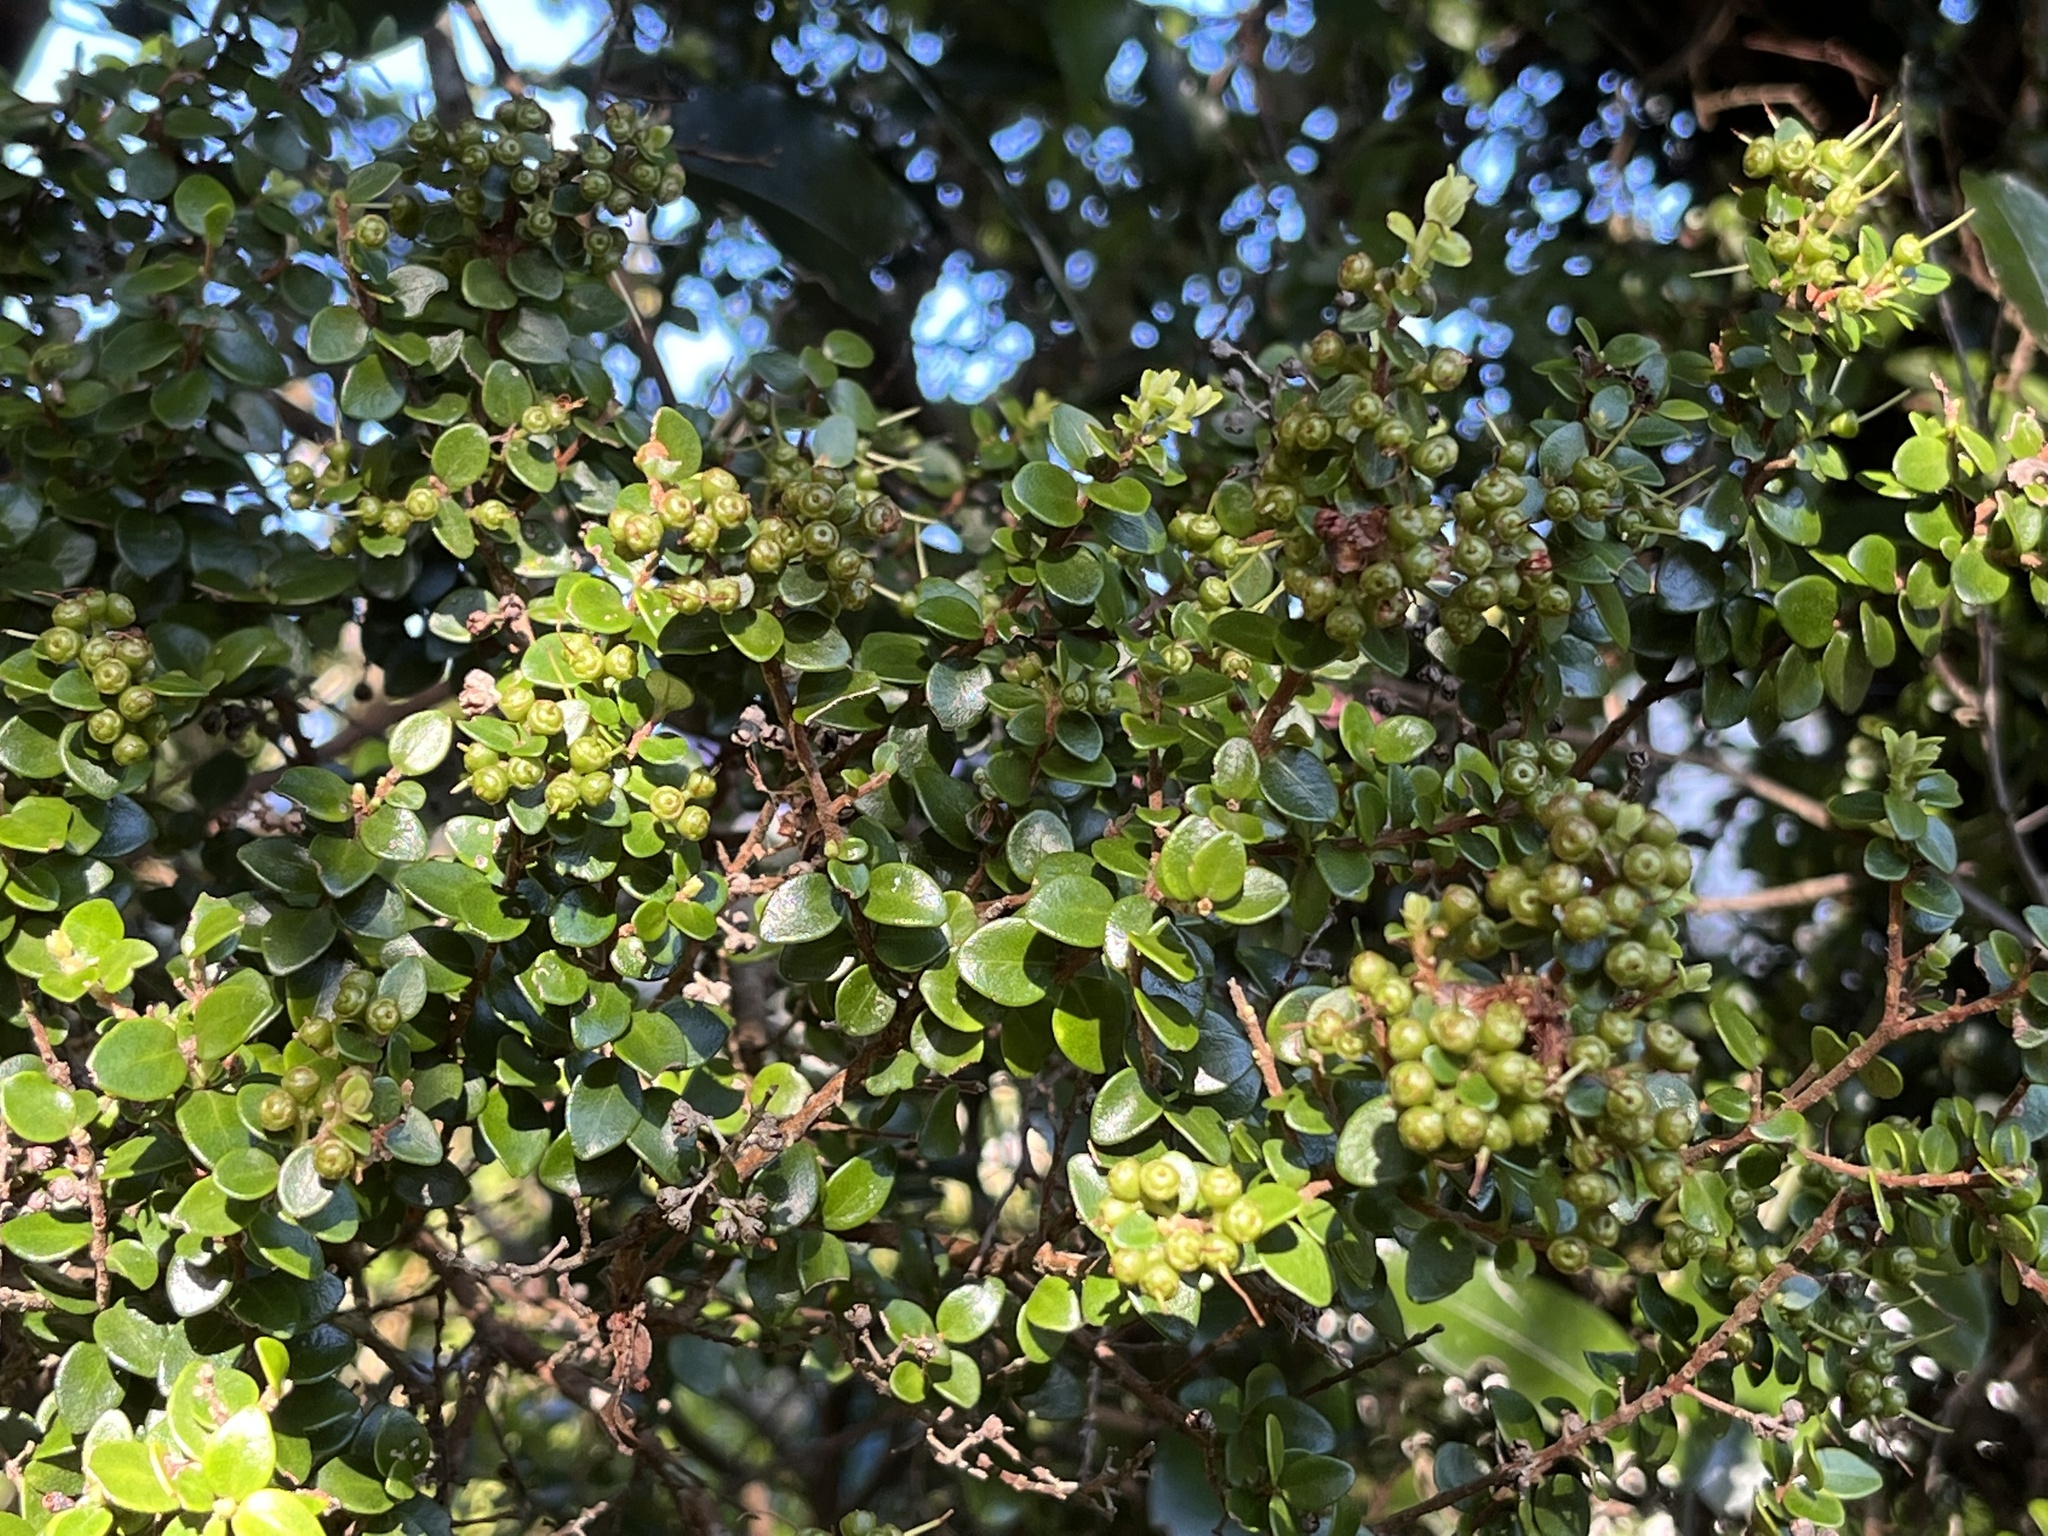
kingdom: Plantae
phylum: Tracheophyta
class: Magnoliopsida
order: Myrtales
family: Myrtaceae
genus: Metrosideros
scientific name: Metrosideros perforata
